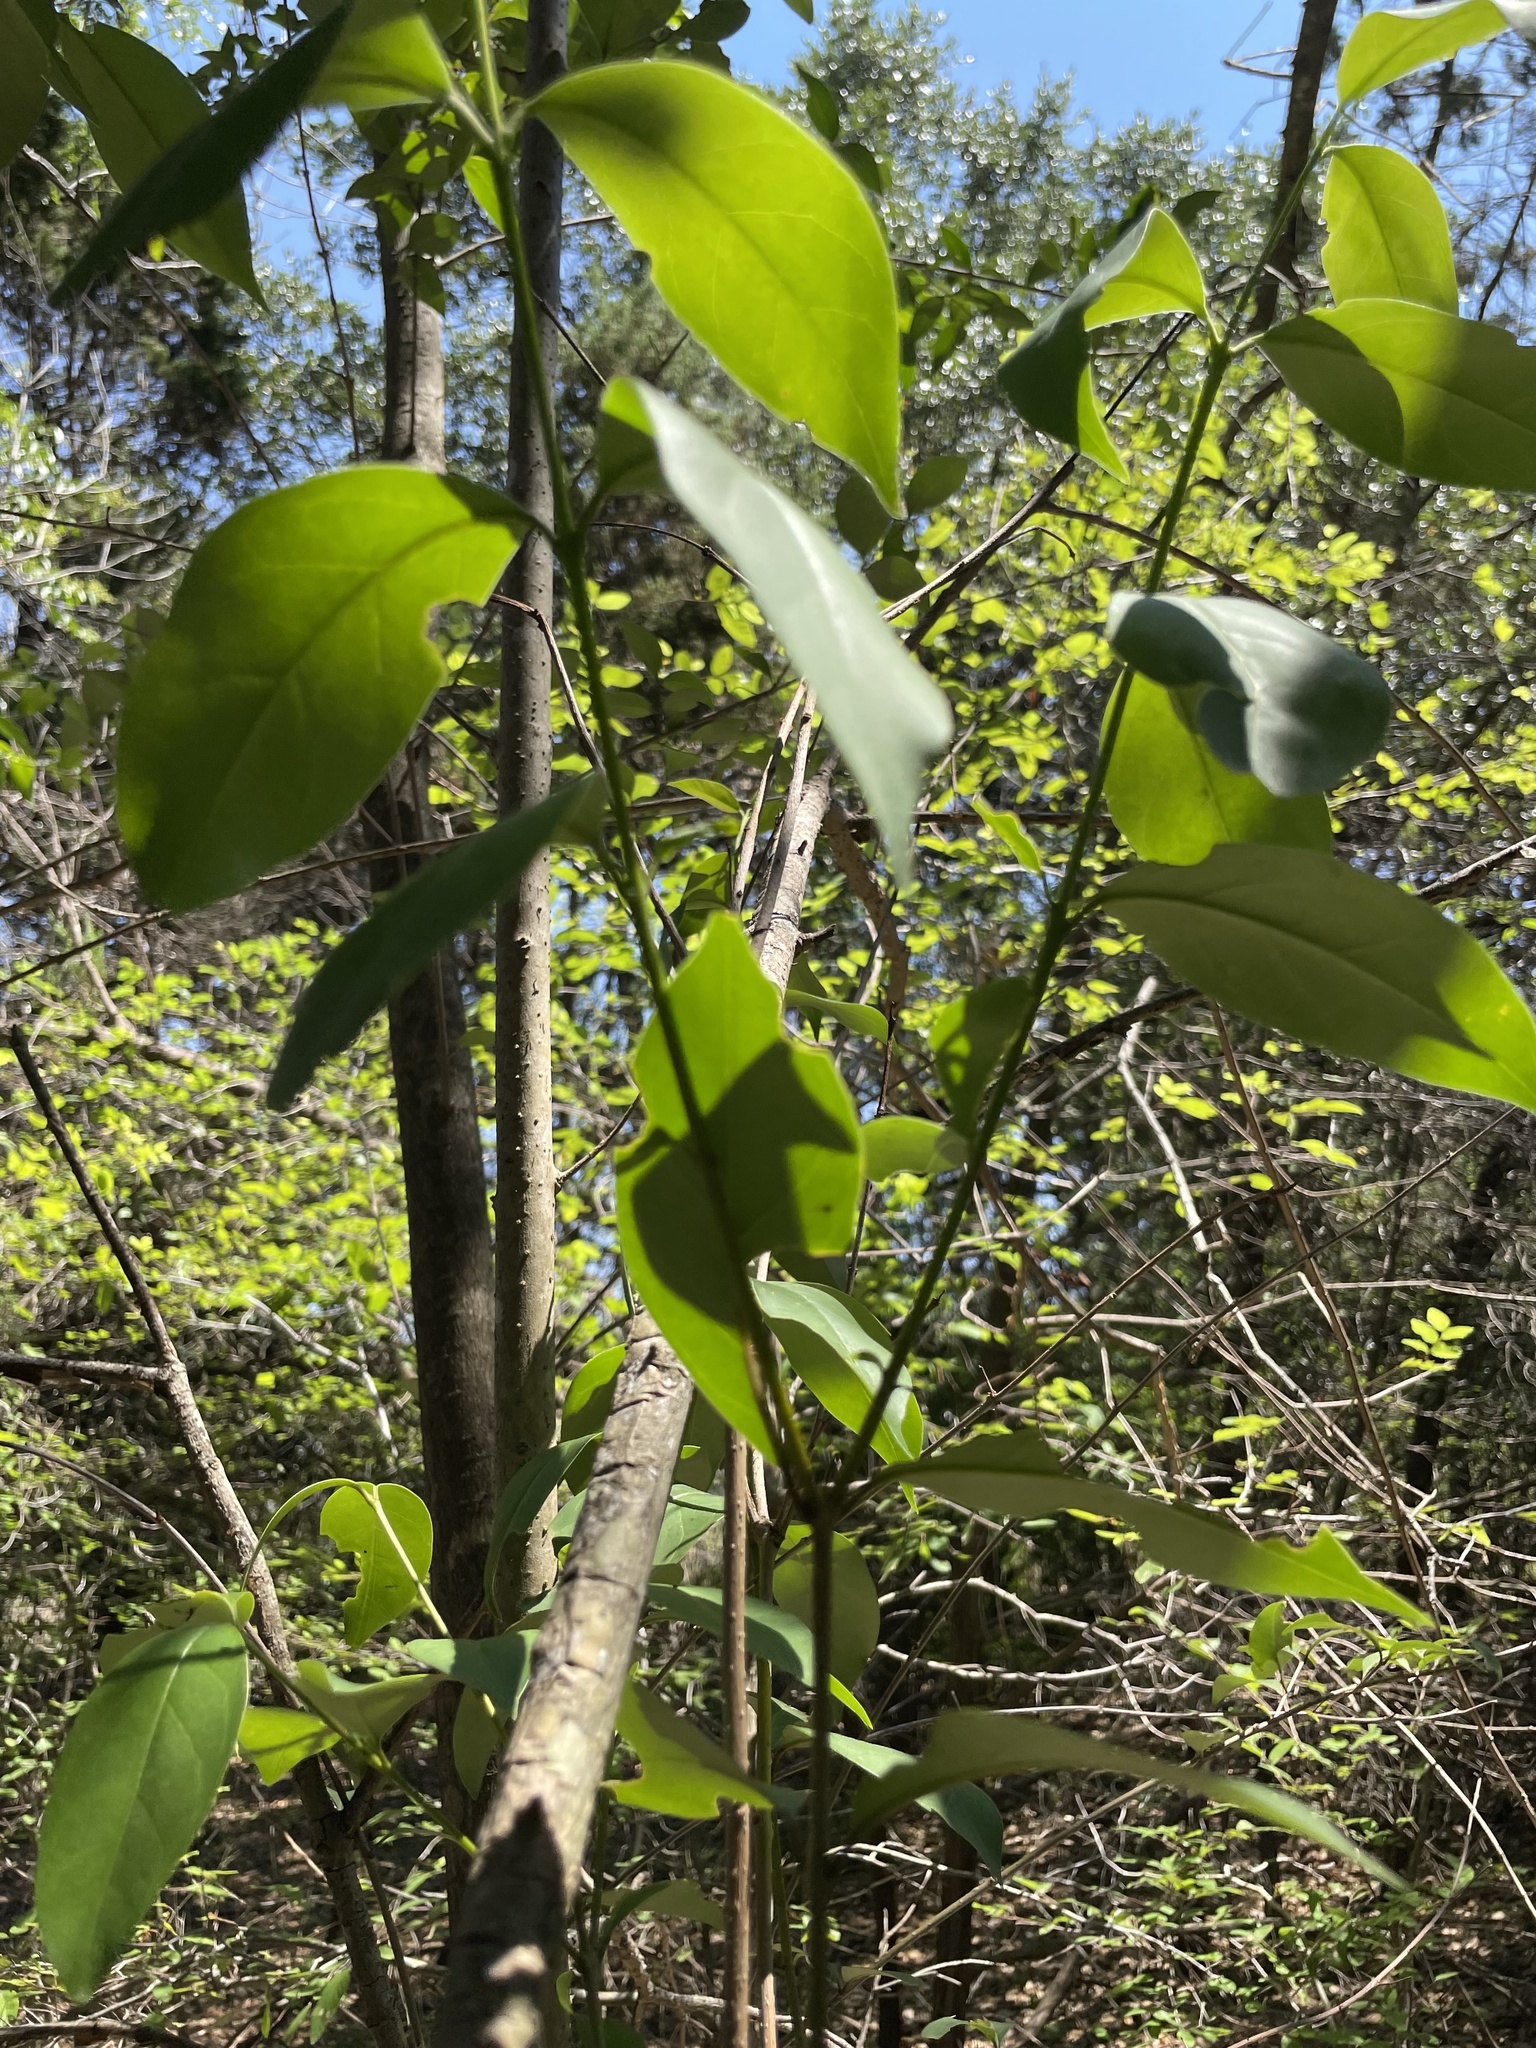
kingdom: Plantae
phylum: Tracheophyta
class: Magnoliopsida
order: Lamiales
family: Oleaceae
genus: Ligustrum
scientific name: Ligustrum lucidum
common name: Glossy privet
